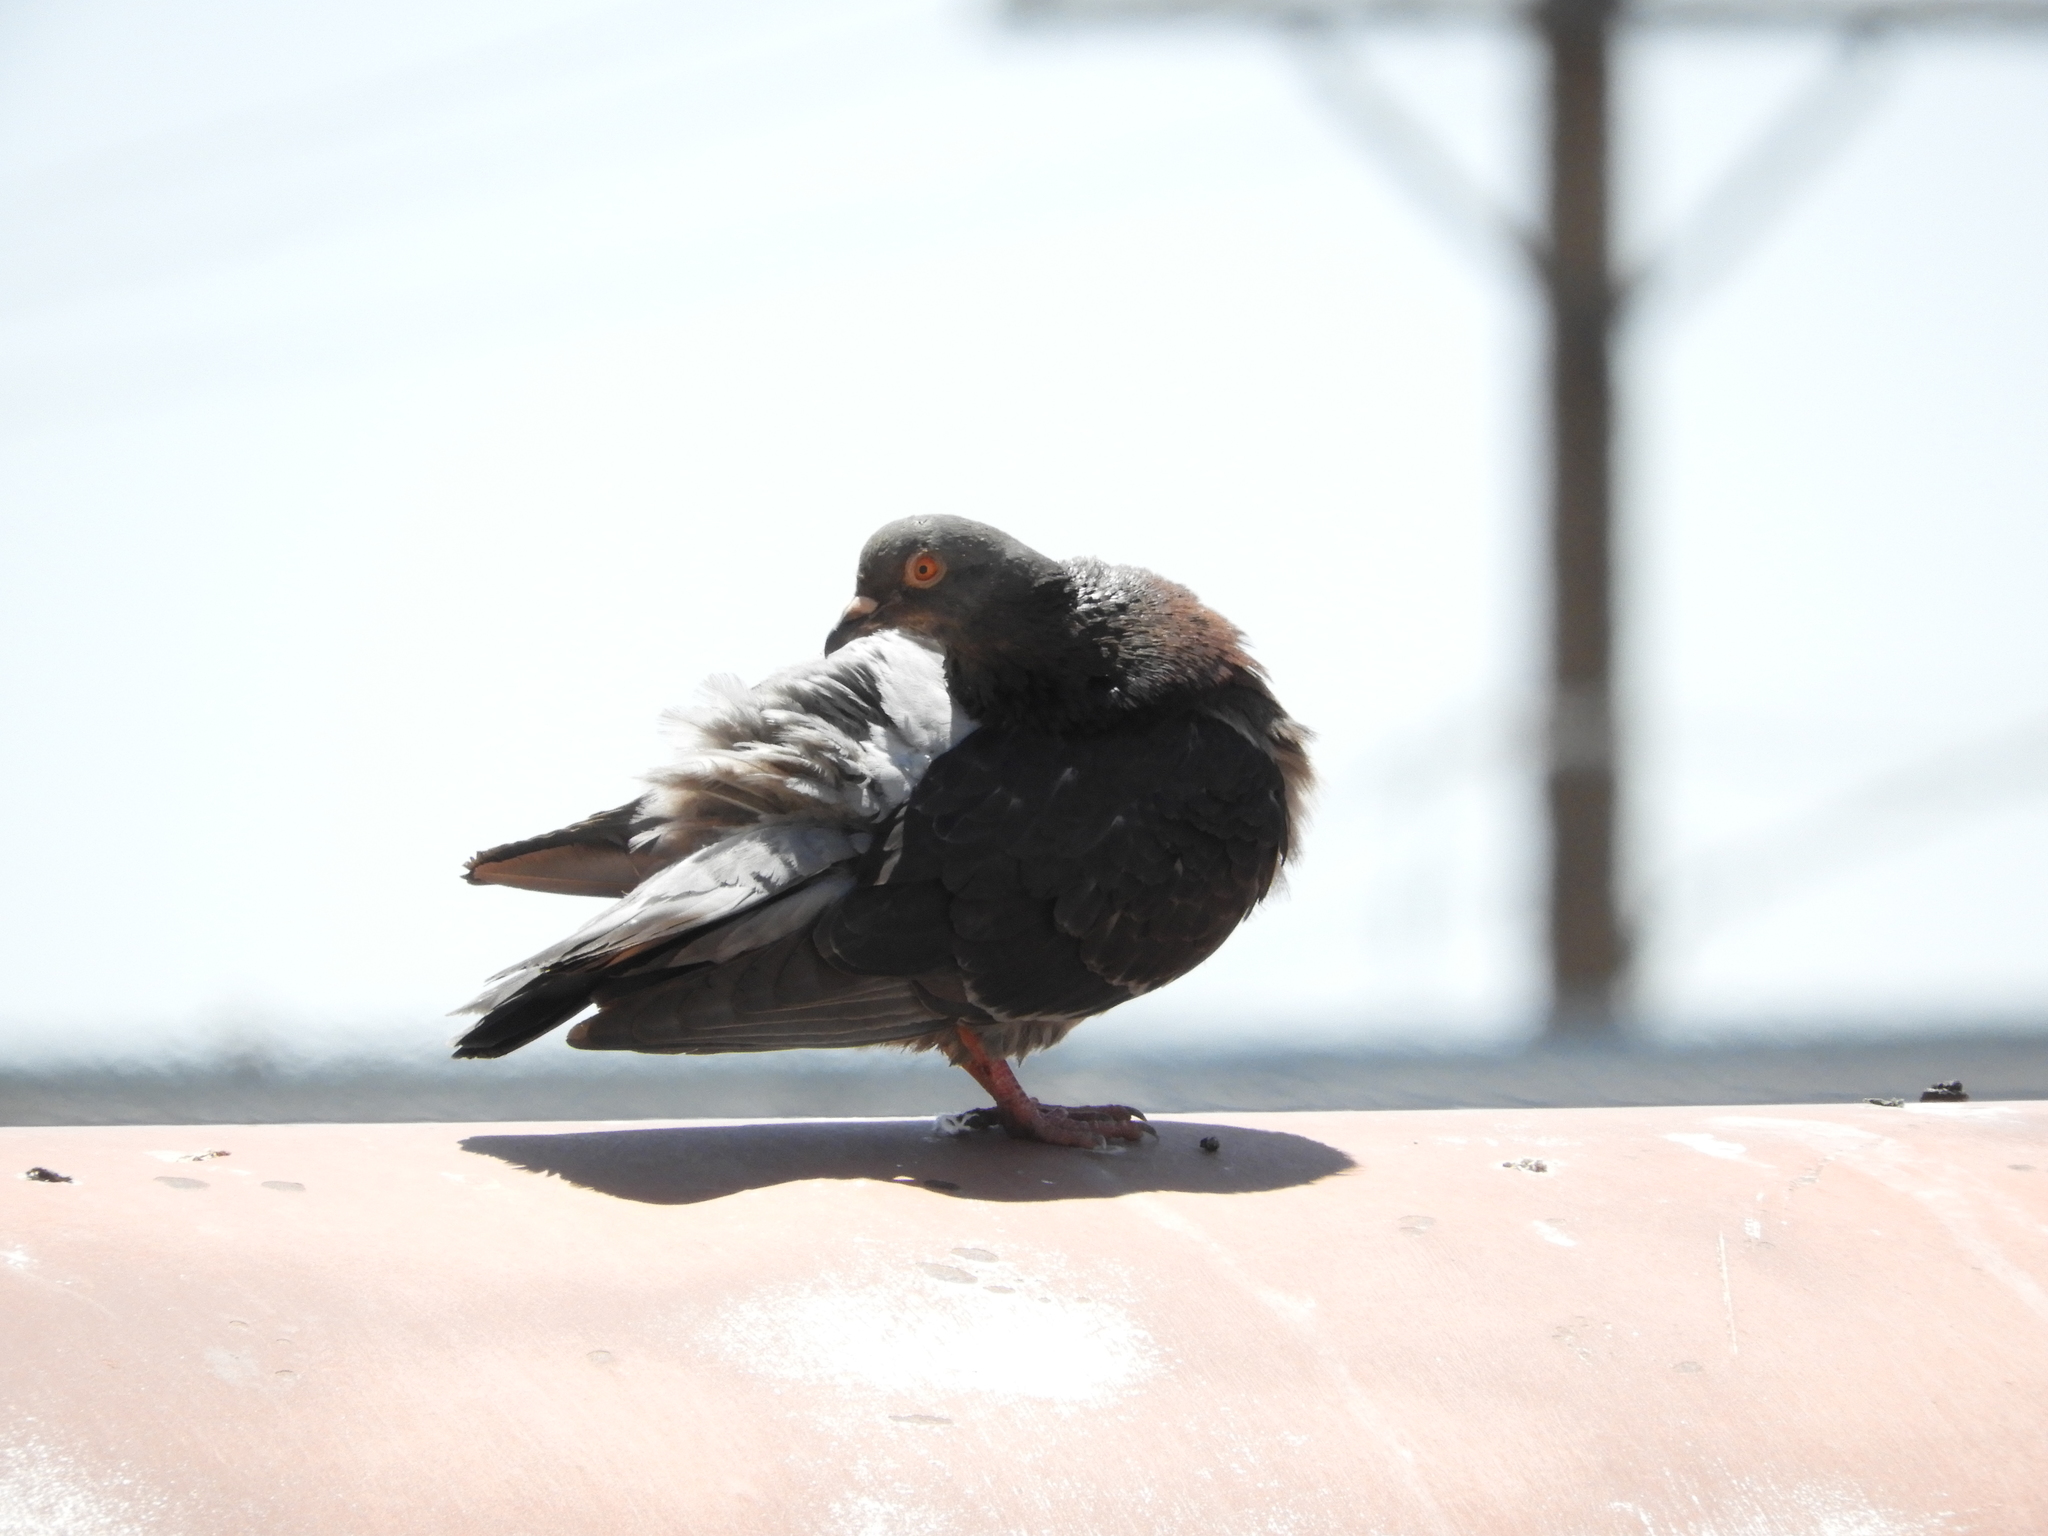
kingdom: Animalia
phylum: Chordata
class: Aves
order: Columbiformes
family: Columbidae
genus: Columba
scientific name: Columba livia
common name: Rock pigeon
